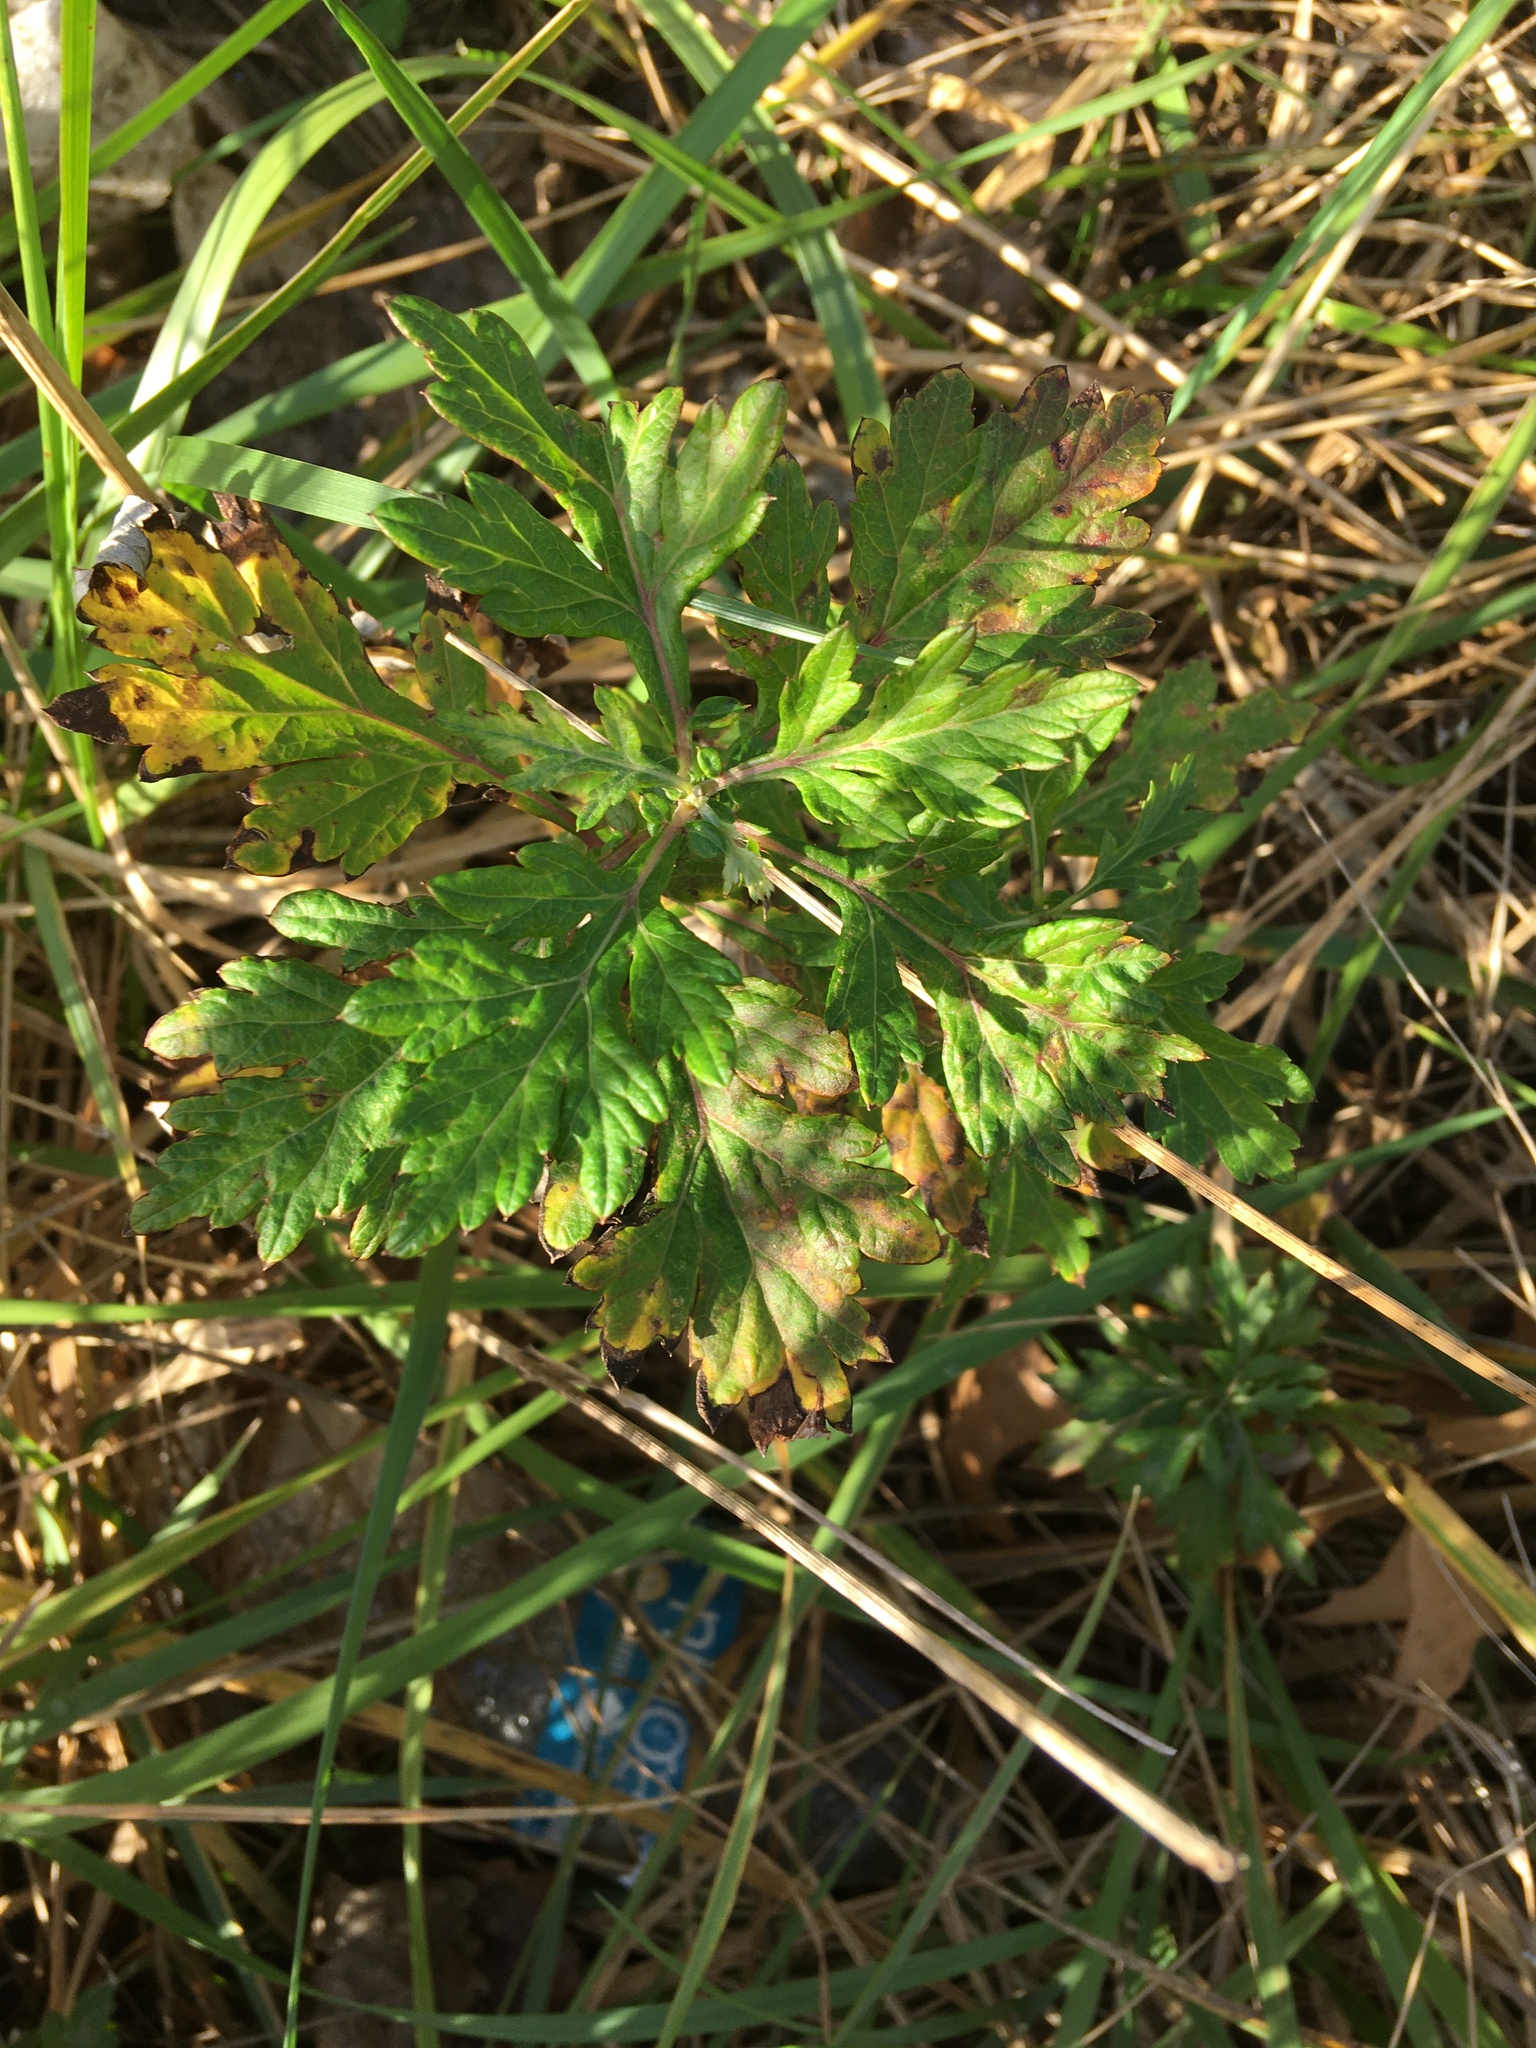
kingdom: Plantae
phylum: Tracheophyta
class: Magnoliopsida
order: Asterales
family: Asteraceae
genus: Artemisia
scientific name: Artemisia vulgaris
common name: Mugwort
